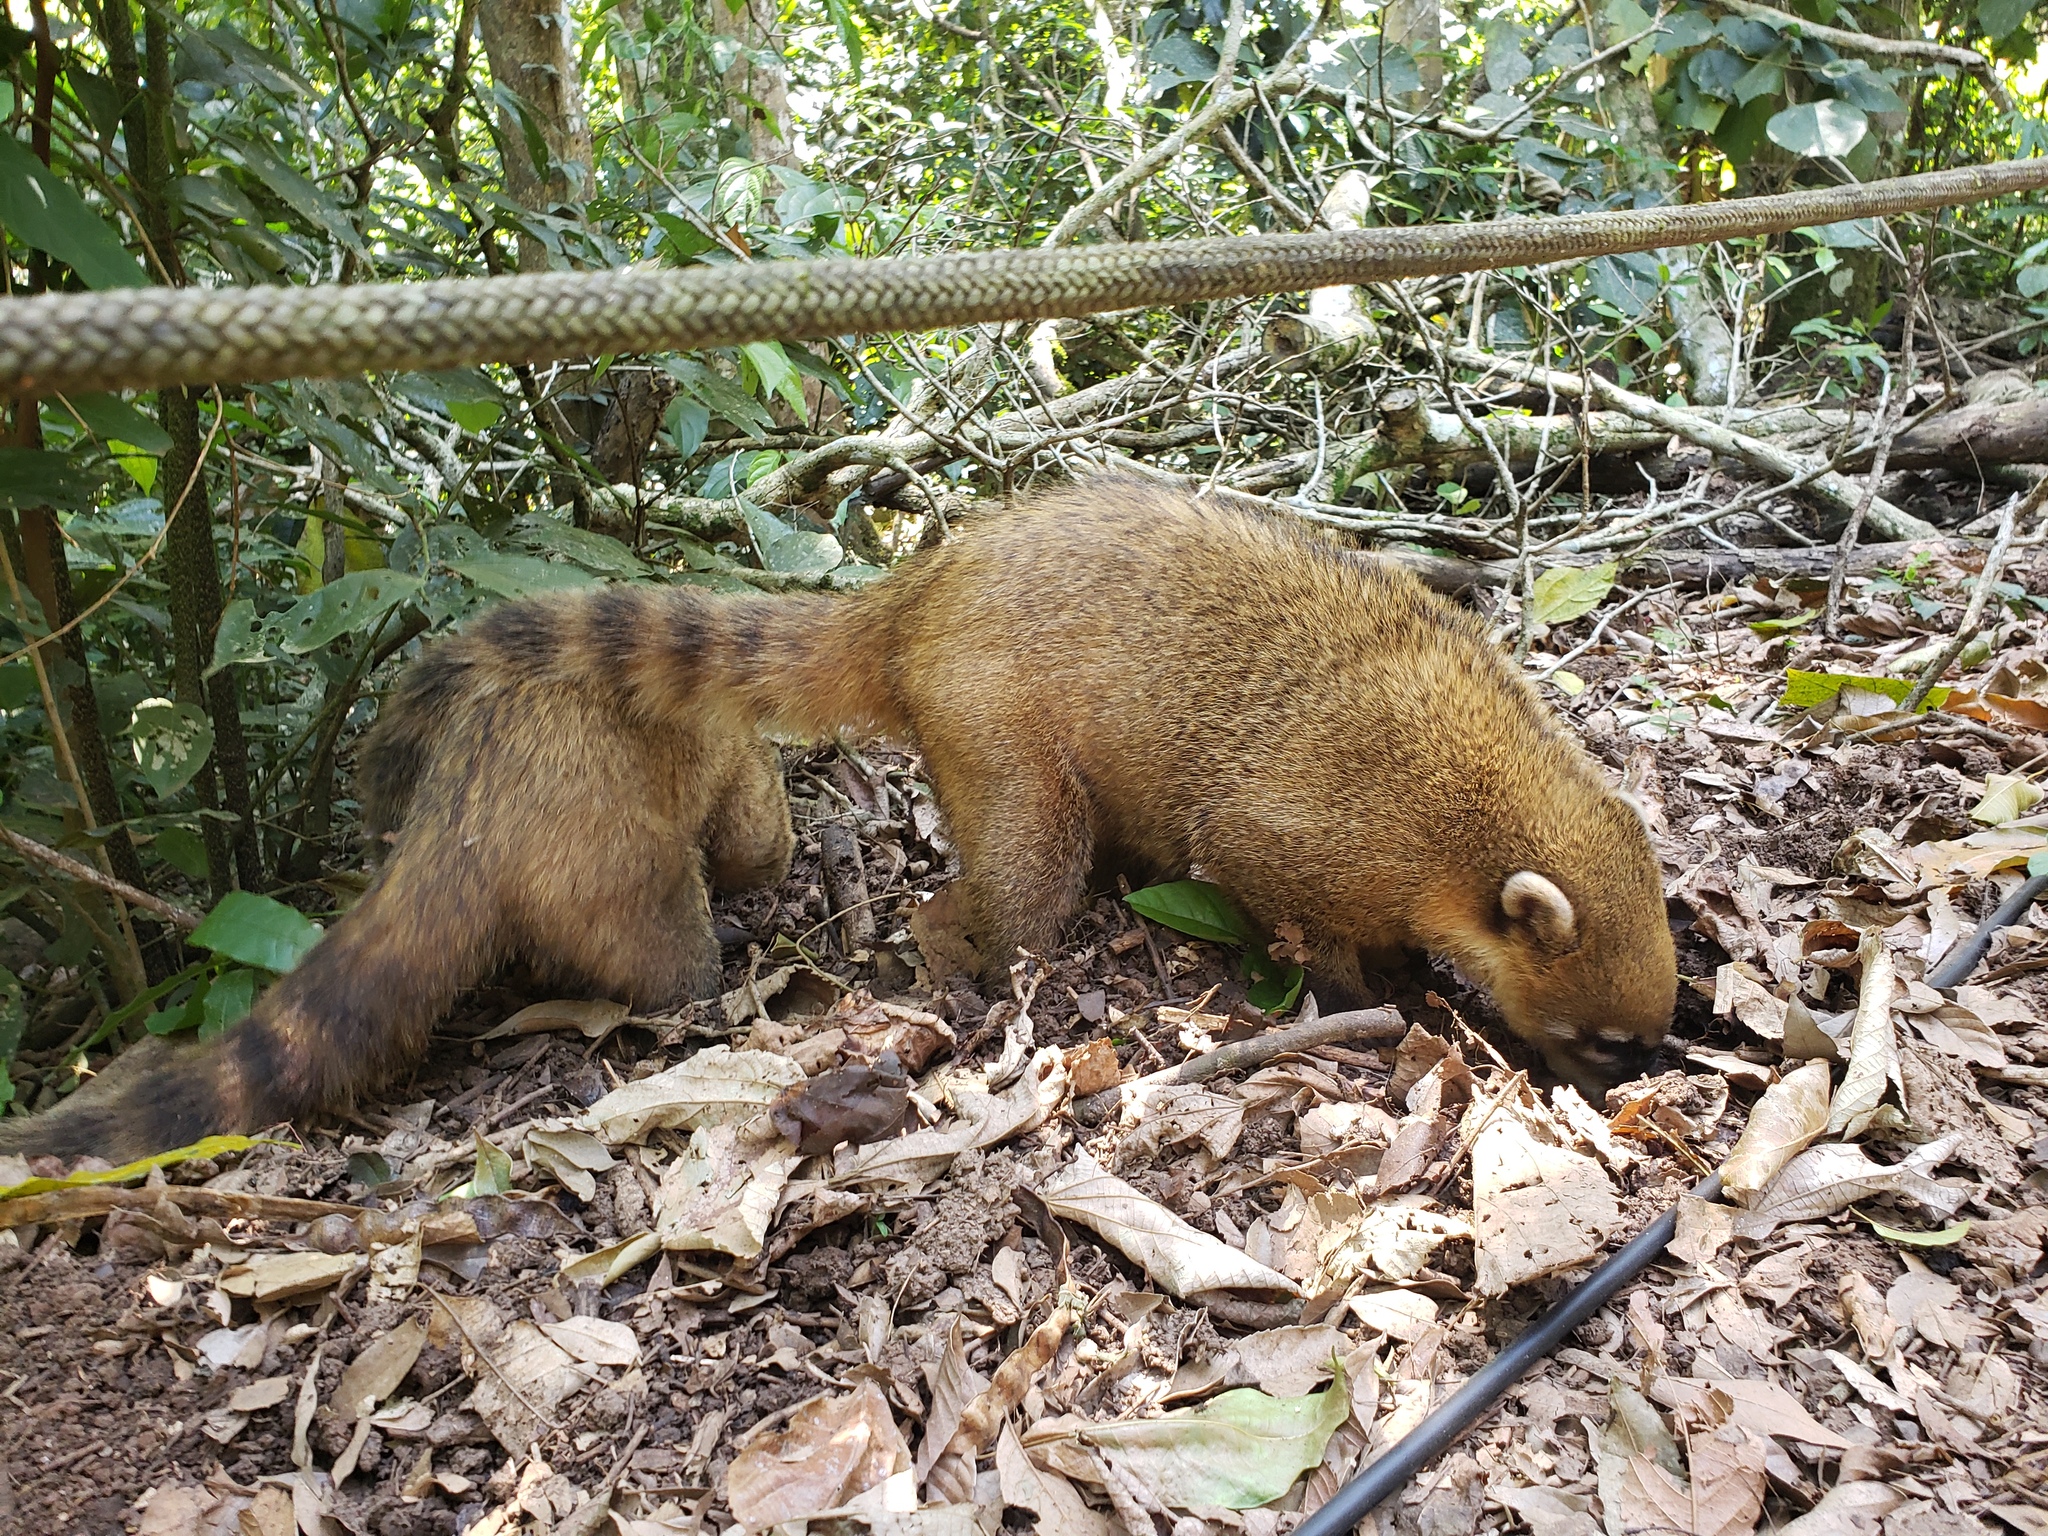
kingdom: Animalia
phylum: Chordata
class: Mammalia
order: Carnivora
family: Procyonidae
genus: Nasua
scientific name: Nasua nasua
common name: South american coati
